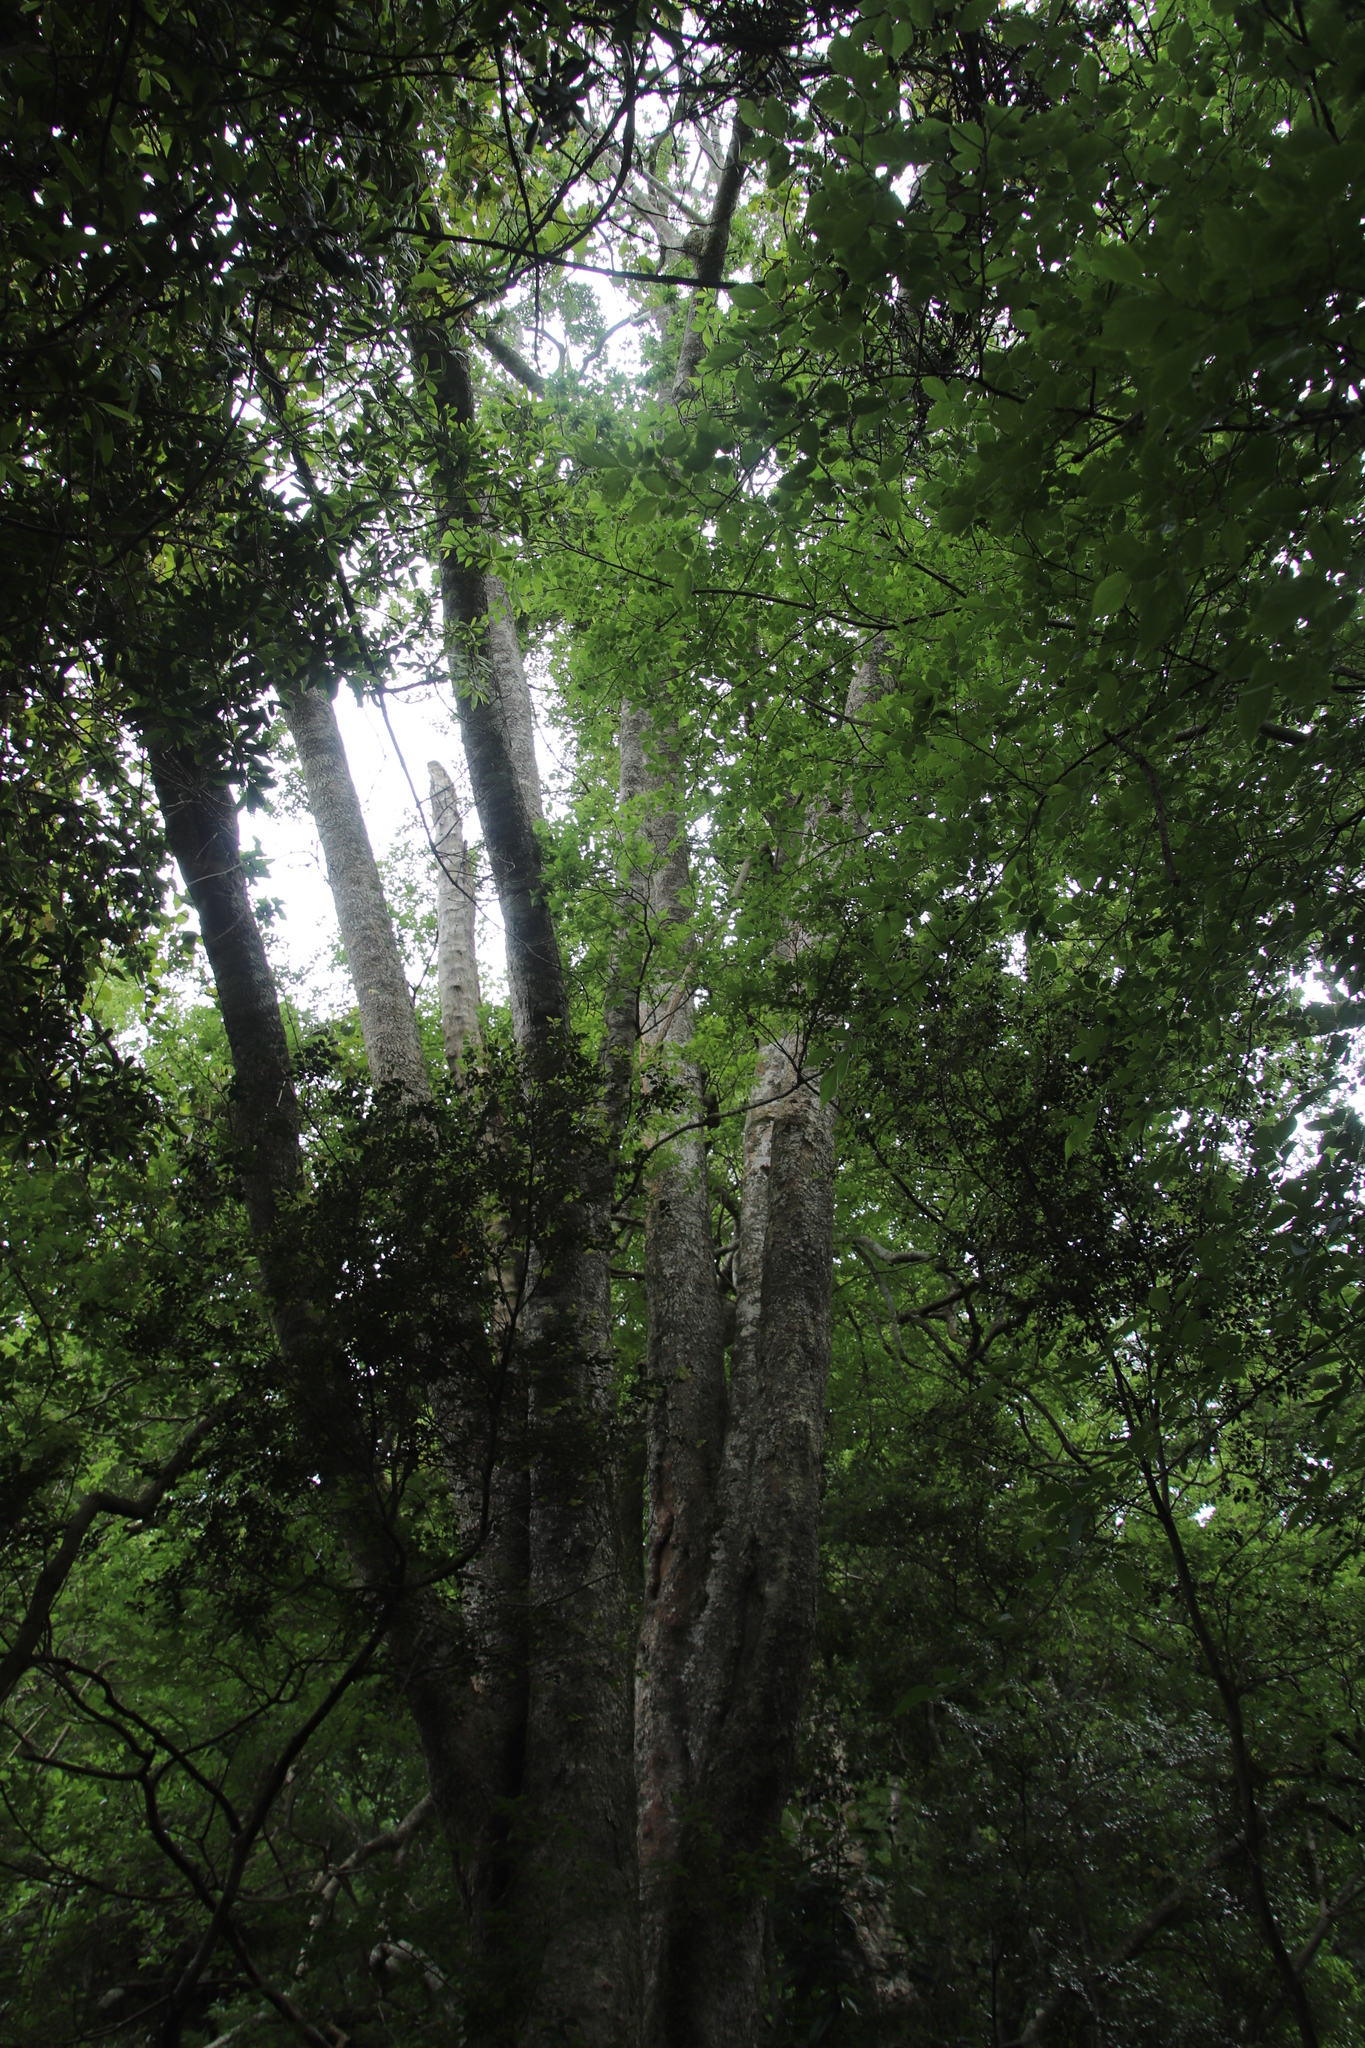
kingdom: Plantae
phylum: Tracheophyta
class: Magnoliopsida
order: Malpighiales
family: Achariaceae
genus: Kiggelaria
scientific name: Kiggelaria africana
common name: Wild peach
